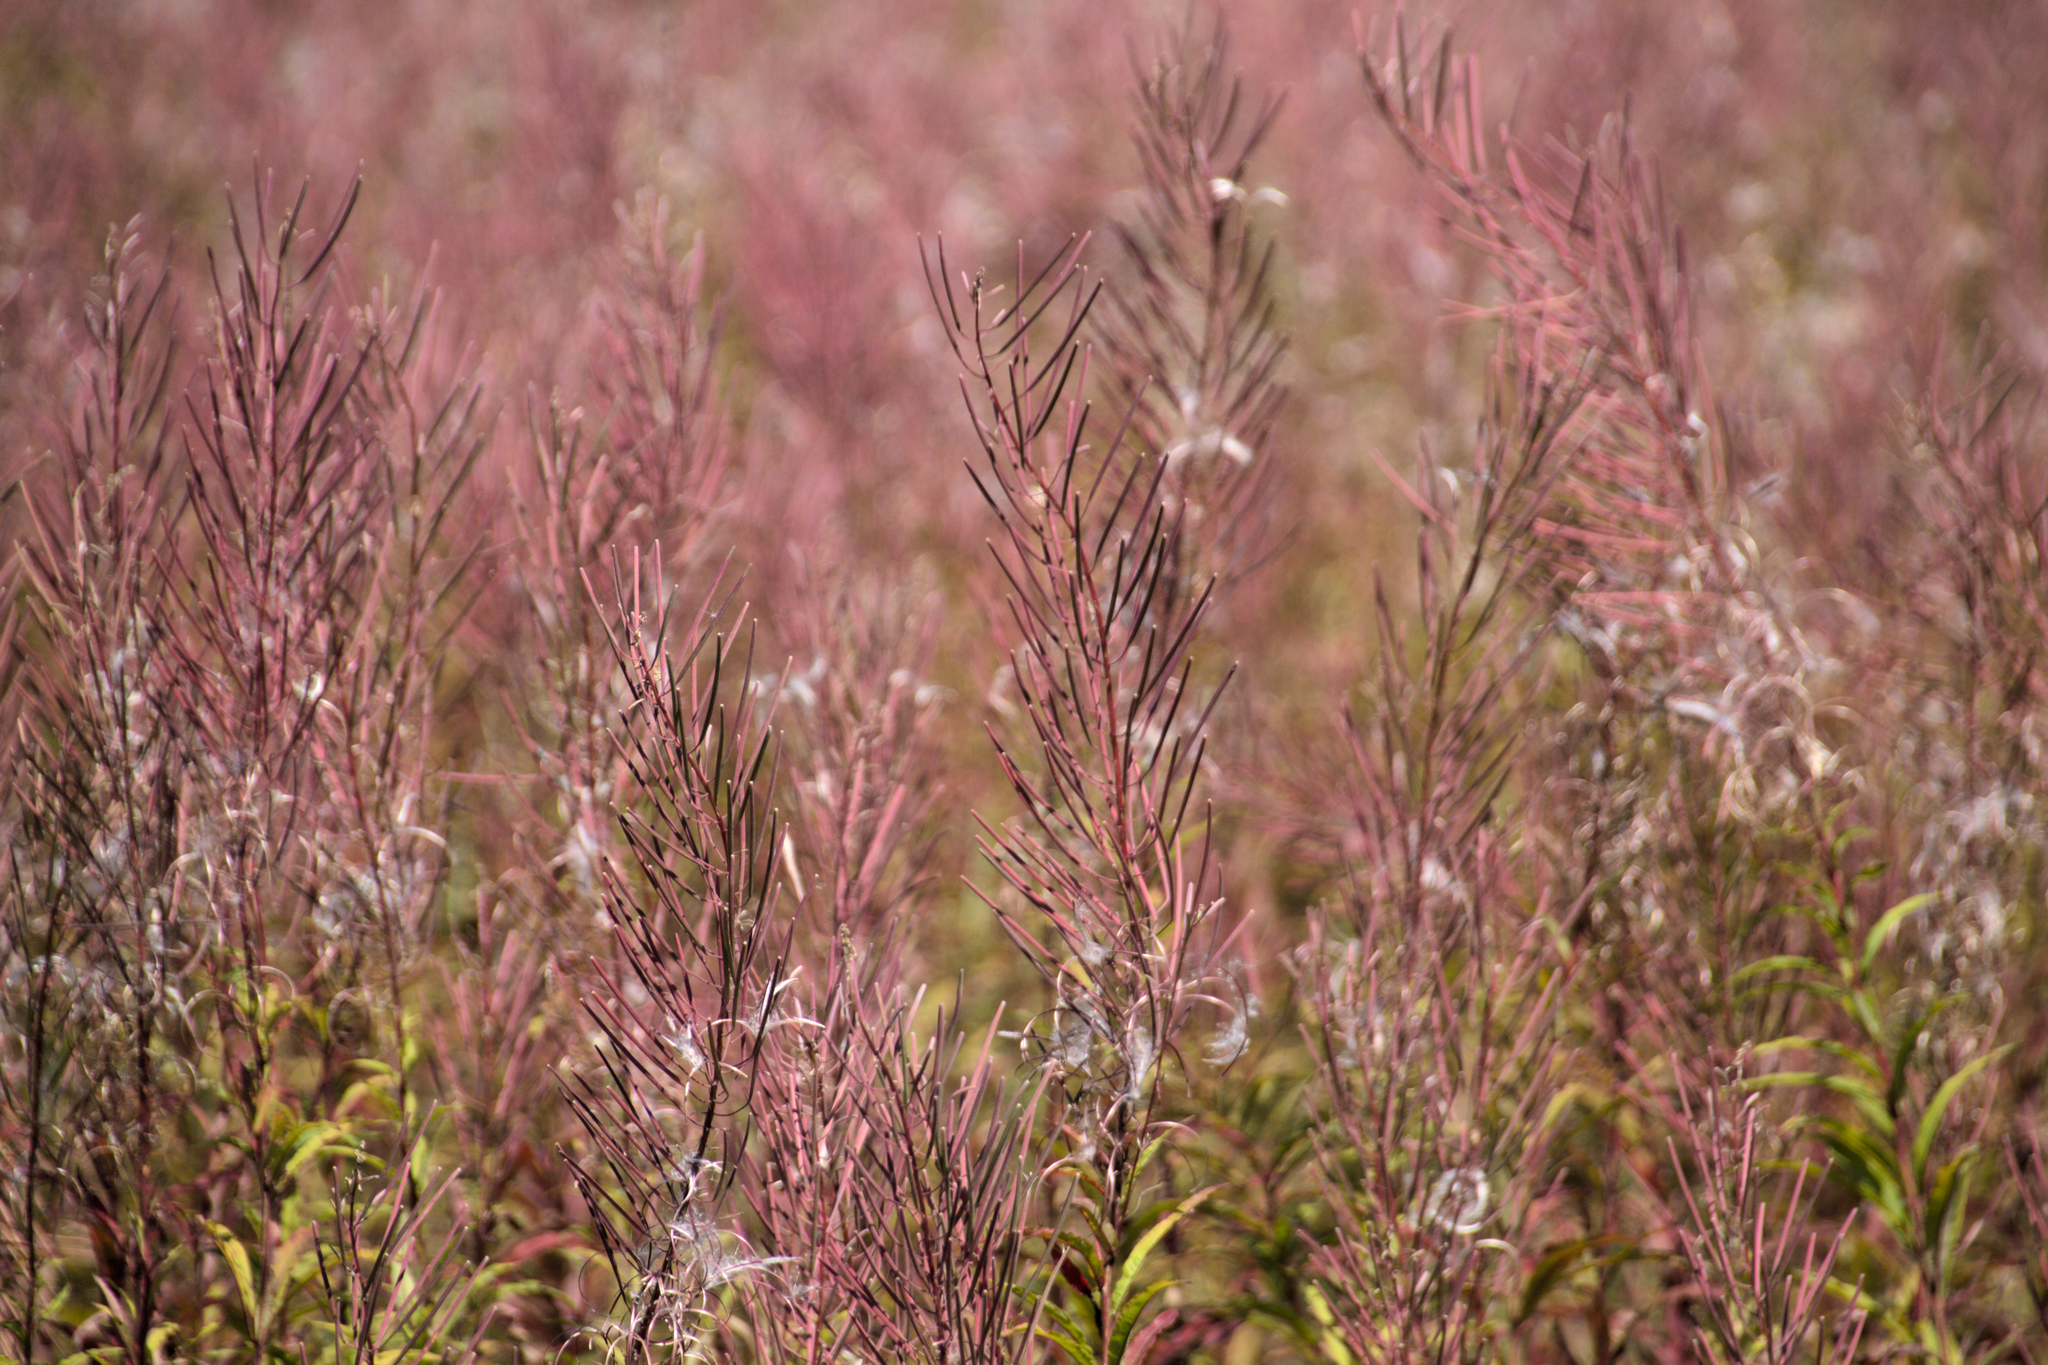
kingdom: Plantae
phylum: Tracheophyta
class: Magnoliopsida
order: Myrtales
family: Onagraceae
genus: Chamaenerion
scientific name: Chamaenerion angustifolium
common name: Fireweed
